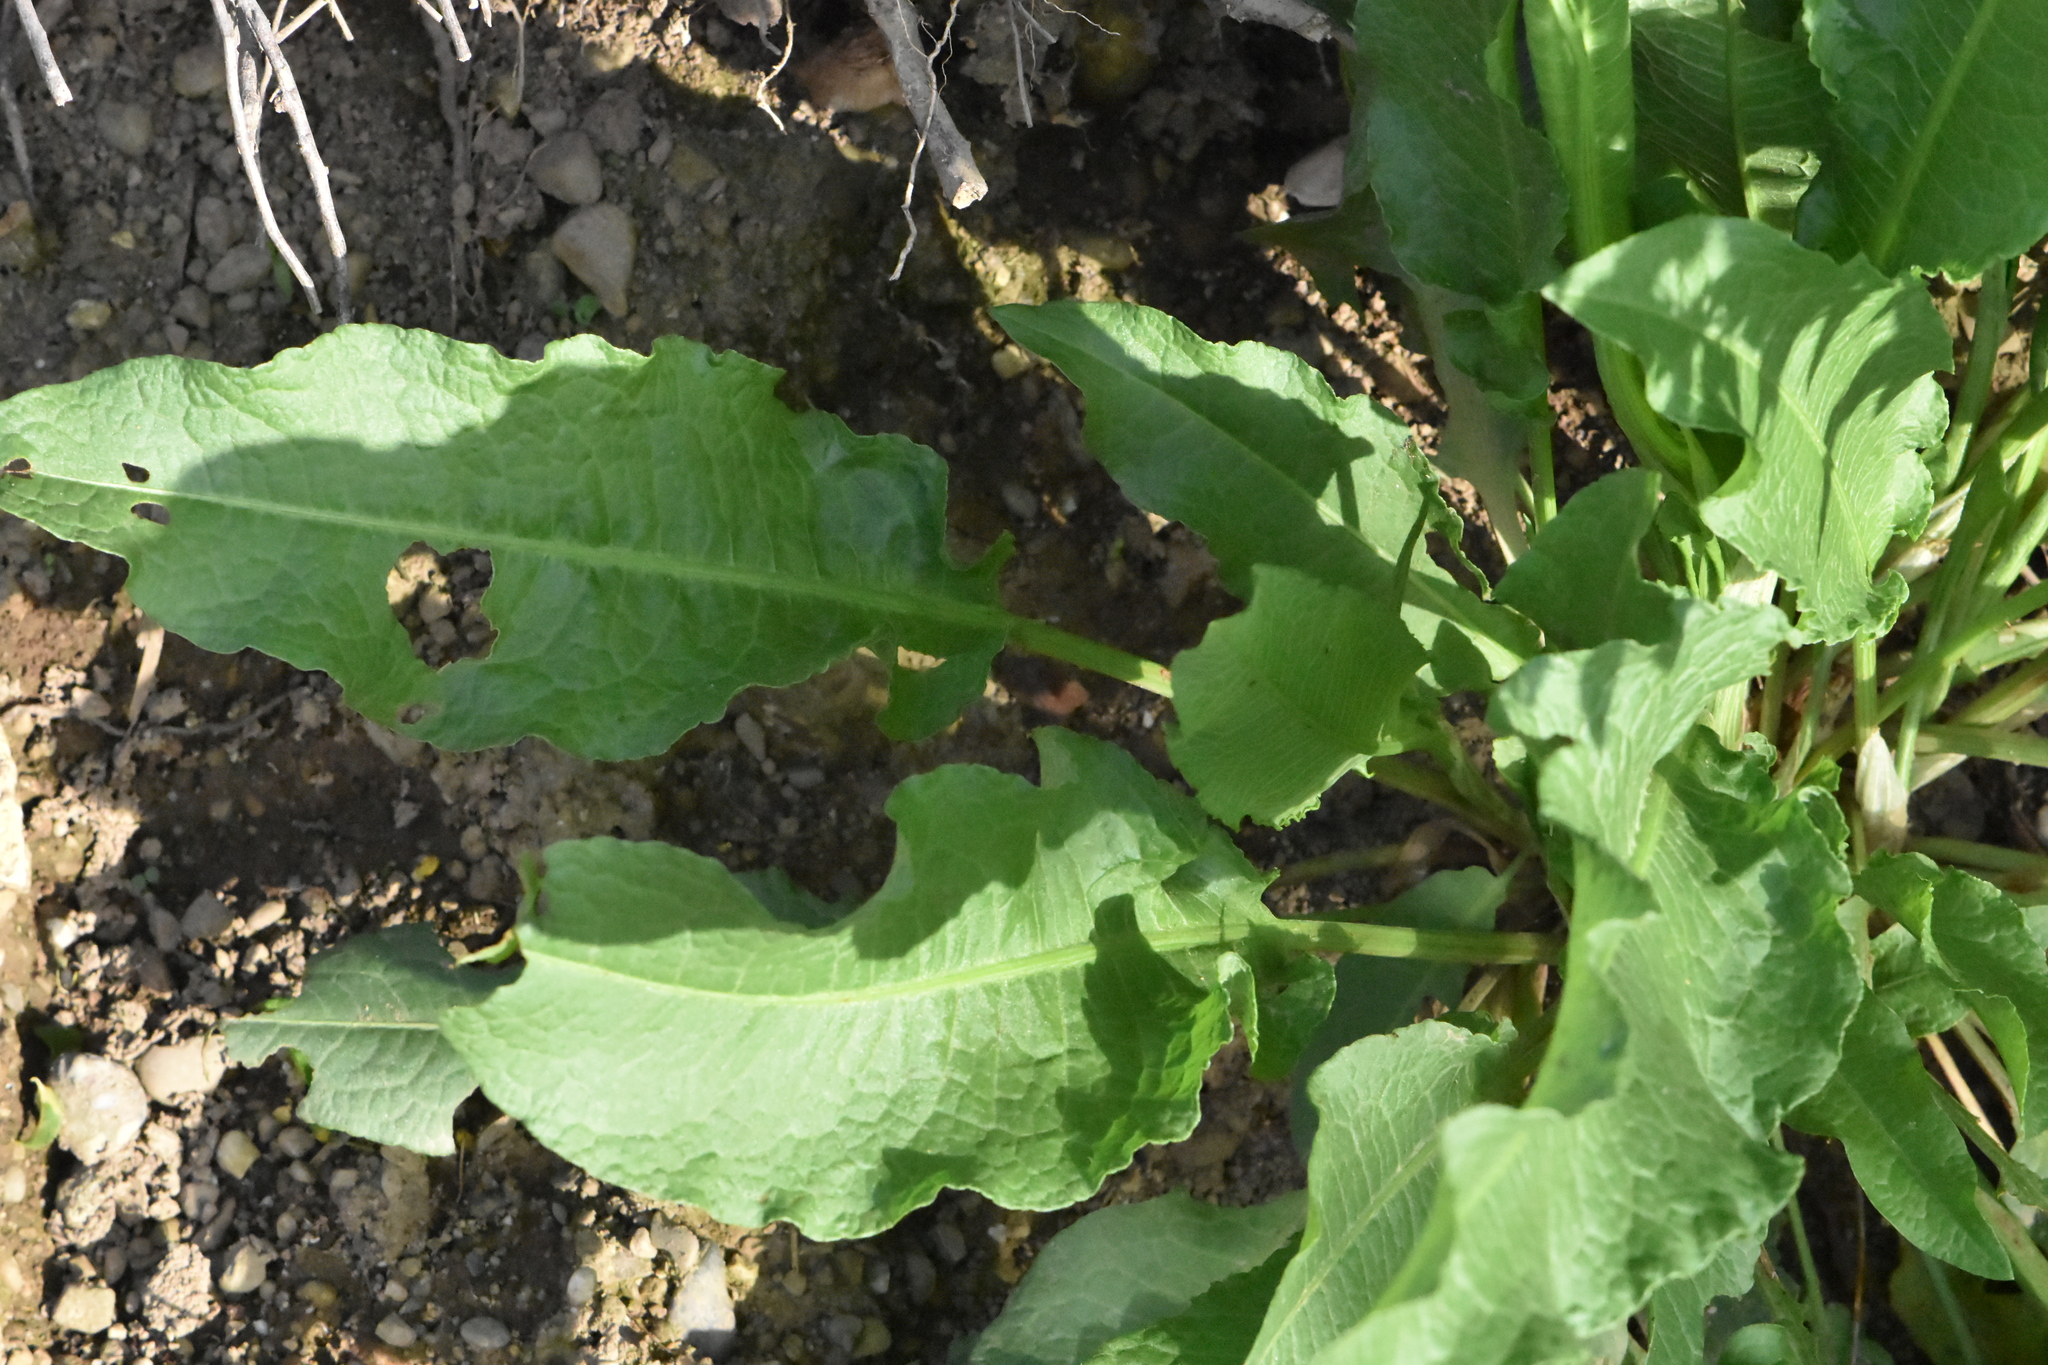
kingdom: Plantae
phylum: Tracheophyta
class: Magnoliopsida
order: Caryophyllales
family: Polygonaceae
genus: Rumex
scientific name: Rumex crispus
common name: Curled dock
